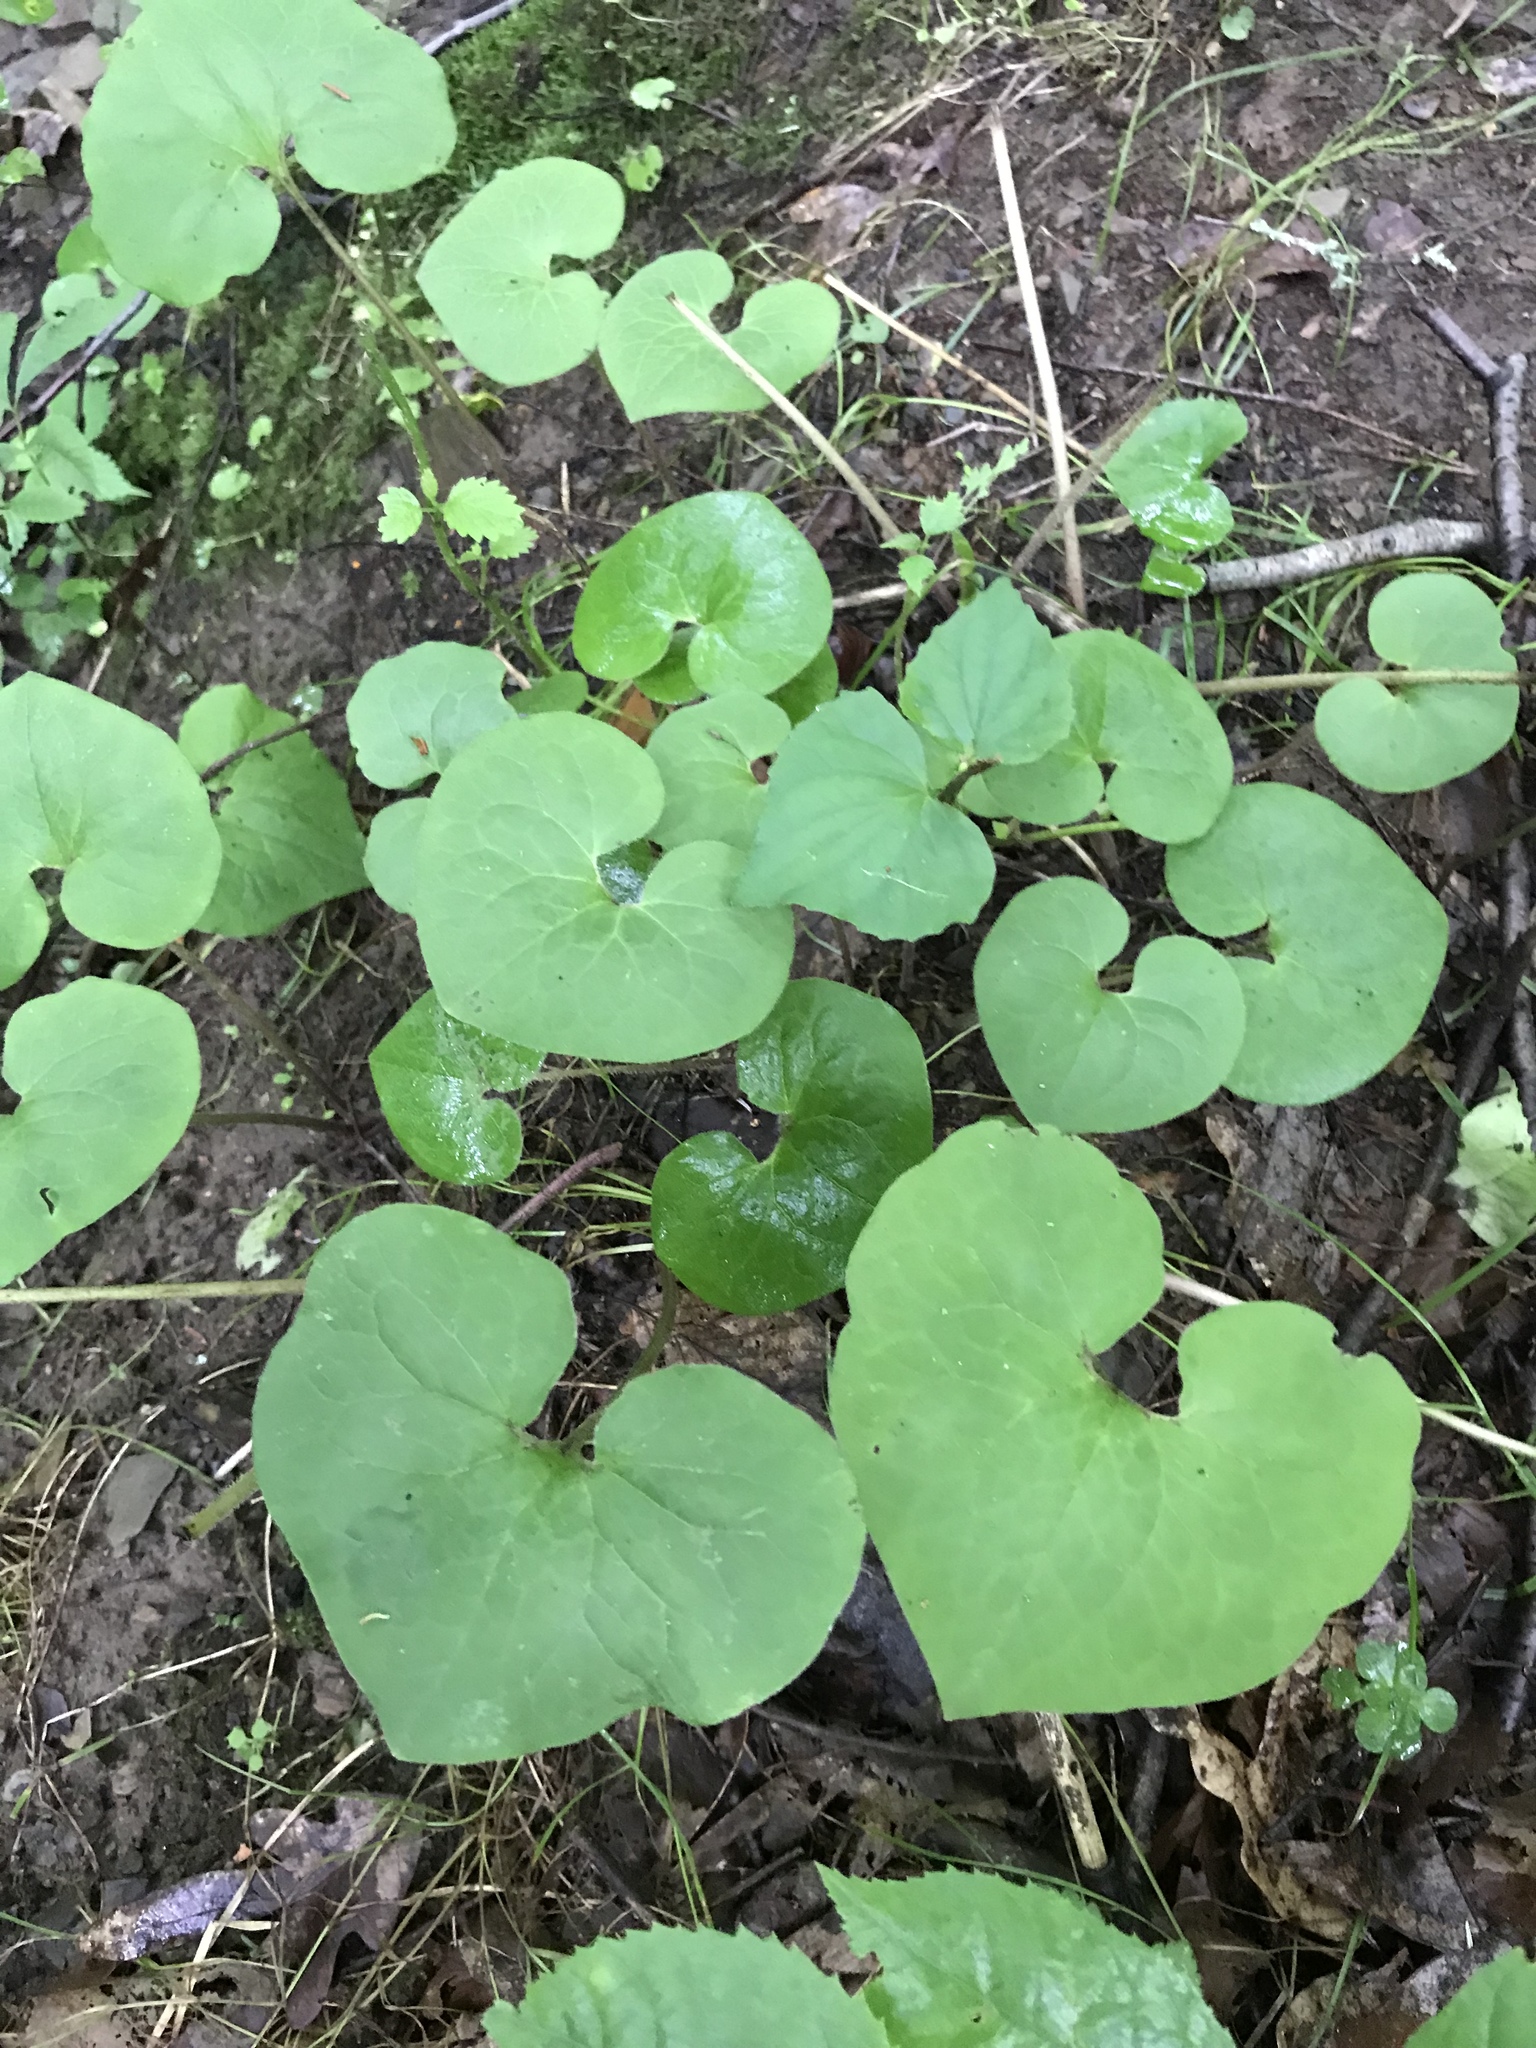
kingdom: Plantae
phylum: Tracheophyta
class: Magnoliopsida
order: Piperales
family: Aristolochiaceae
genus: Asarum
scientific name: Asarum canadense
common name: Wild ginger
